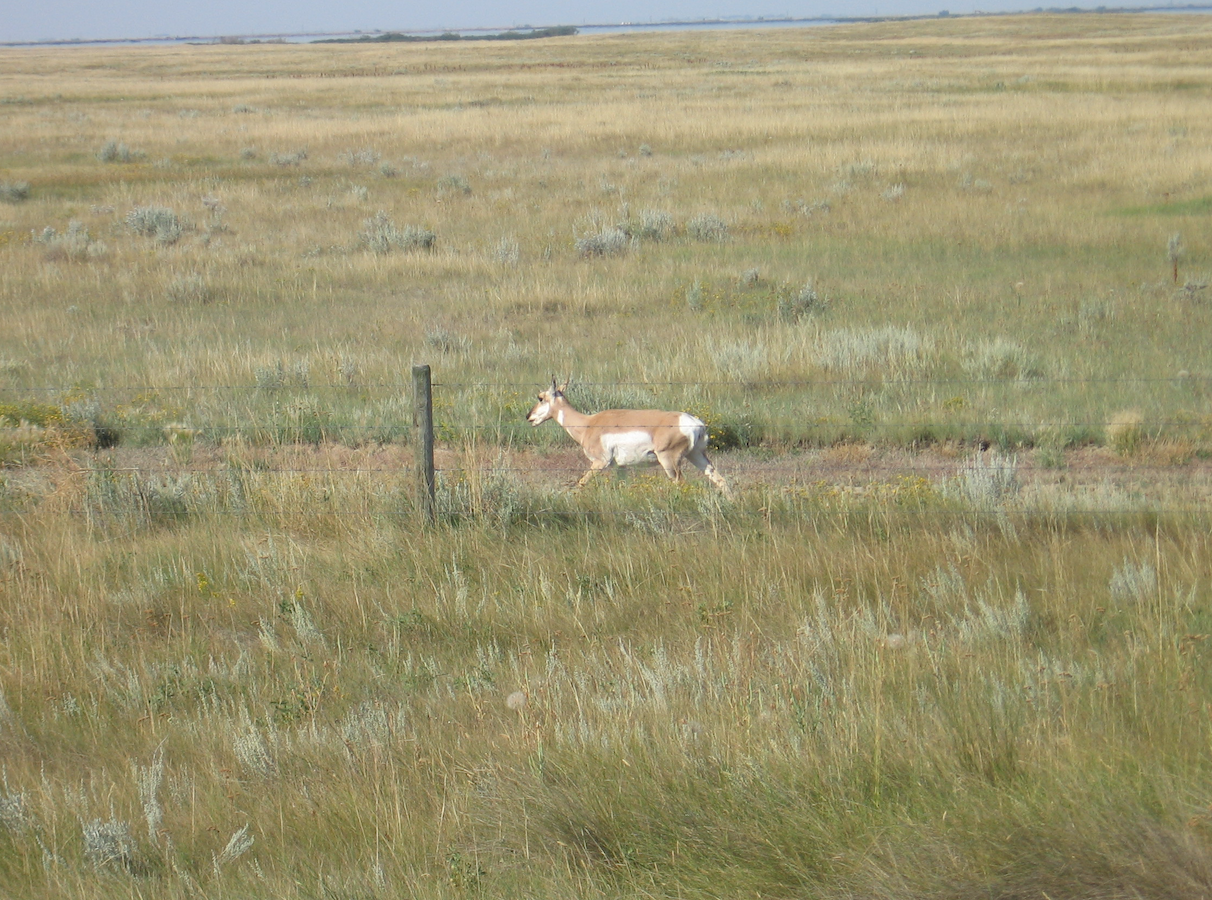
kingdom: Animalia
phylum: Chordata
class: Mammalia
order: Artiodactyla
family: Antilocapridae
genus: Antilocapra
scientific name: Antilocapra americana
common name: Pronghorn
